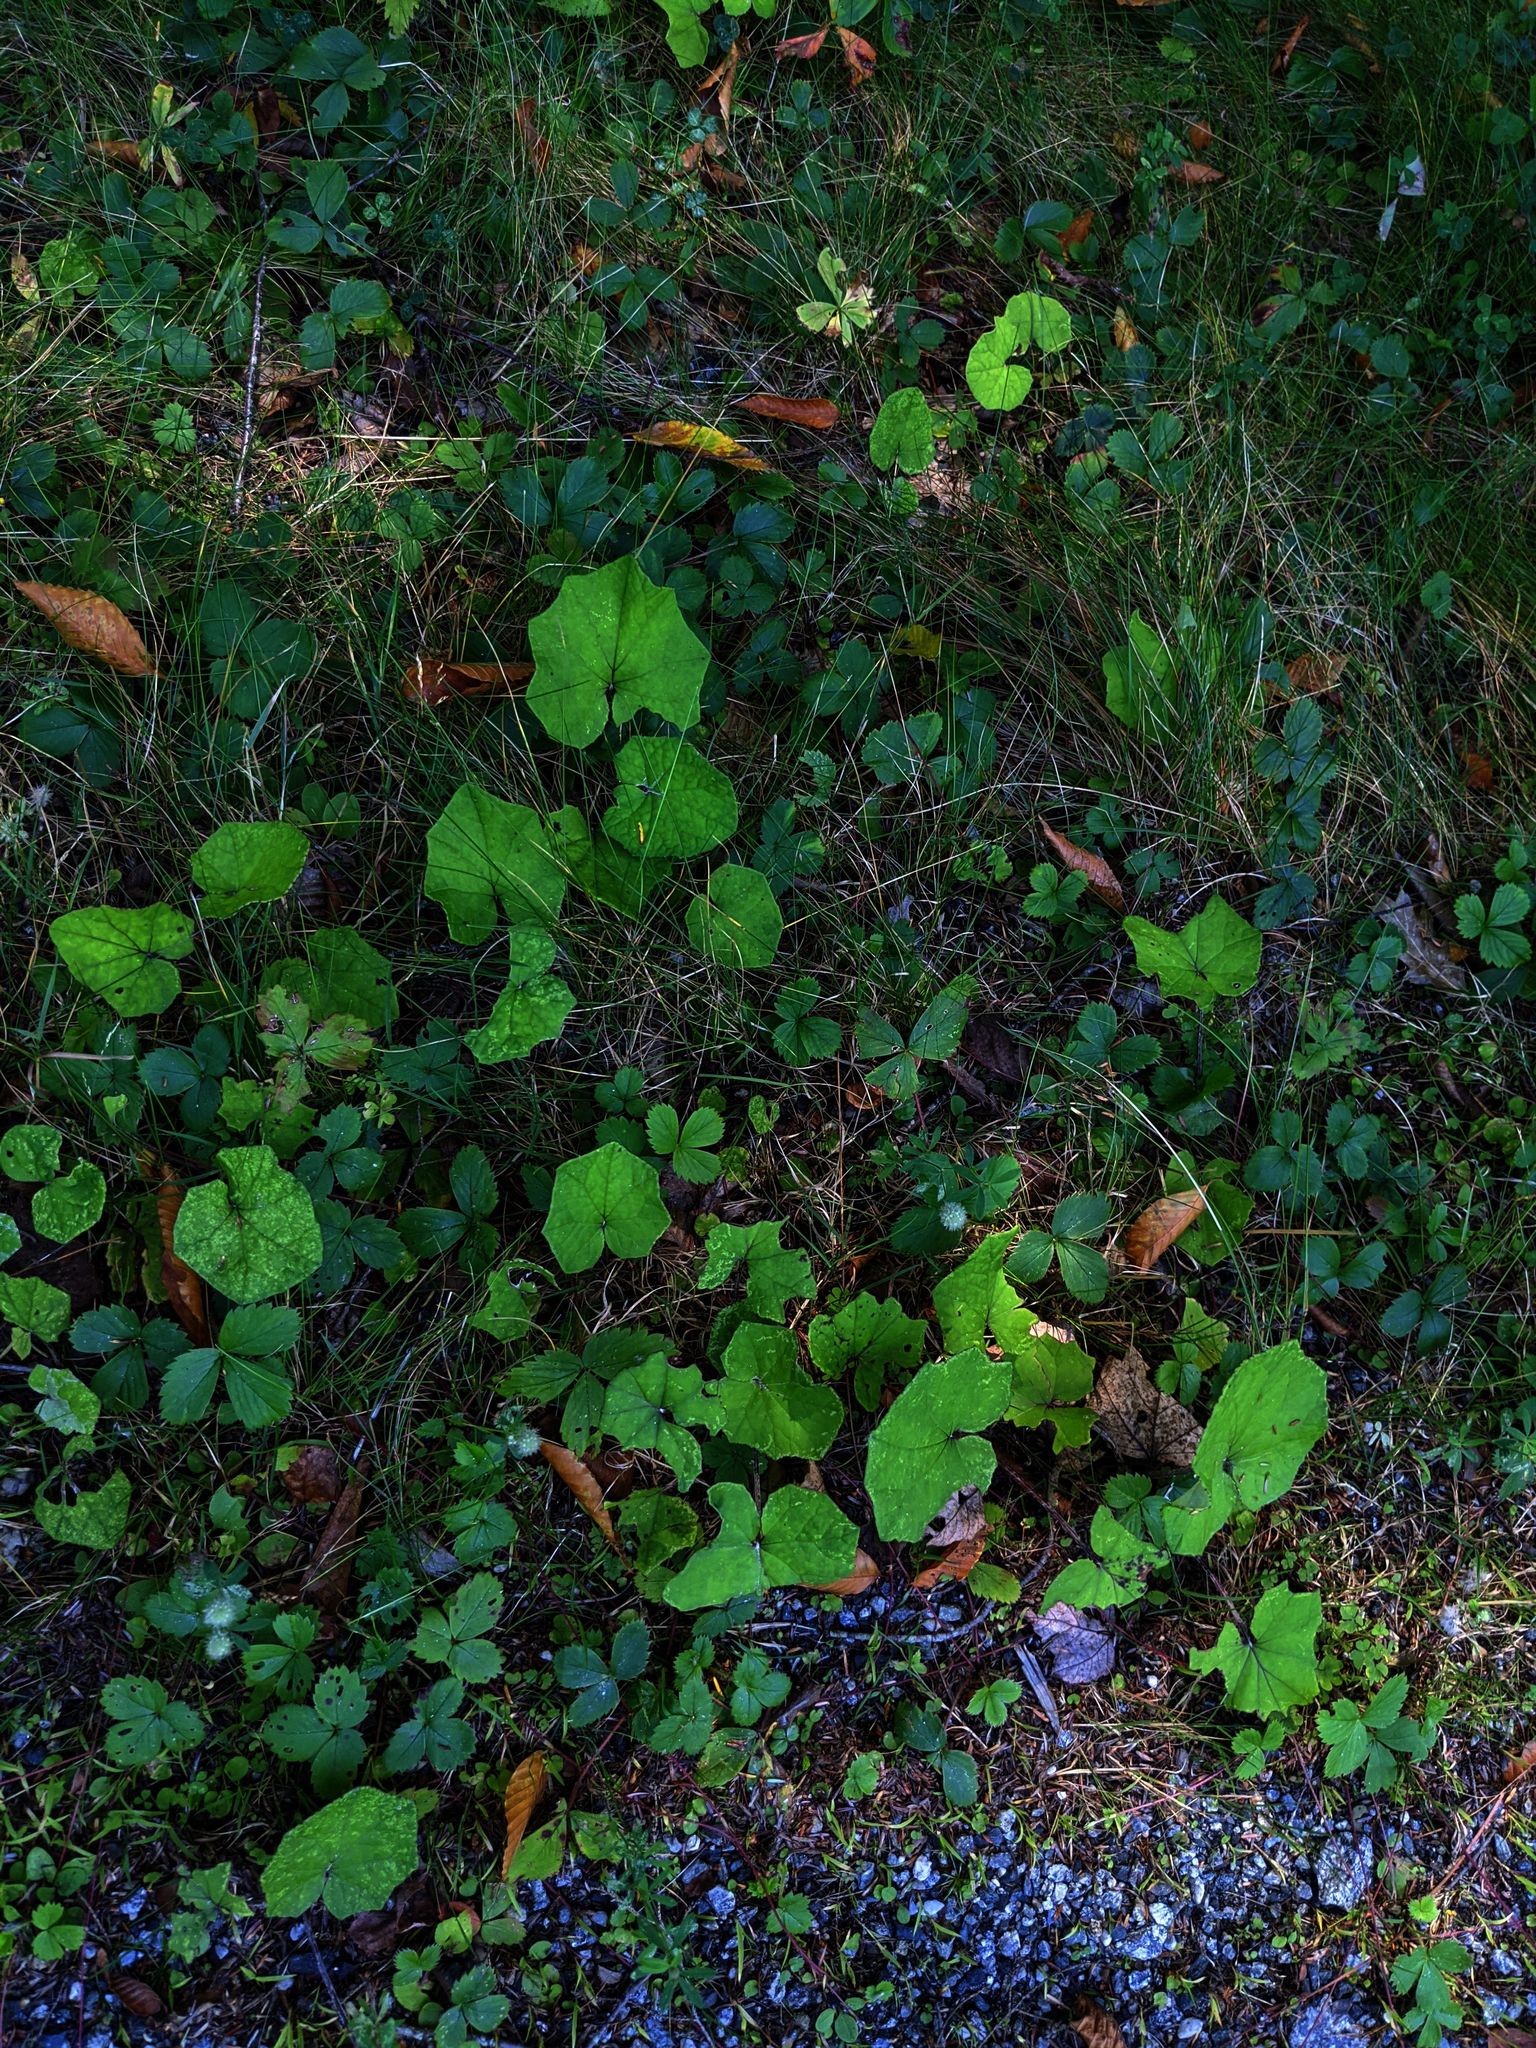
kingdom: Plantae
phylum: Tracheophyta
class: Magnoliopsida
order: Asterales
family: Asteraceae
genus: Tussilago
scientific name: Tussilago farfara
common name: Coltsfoot
